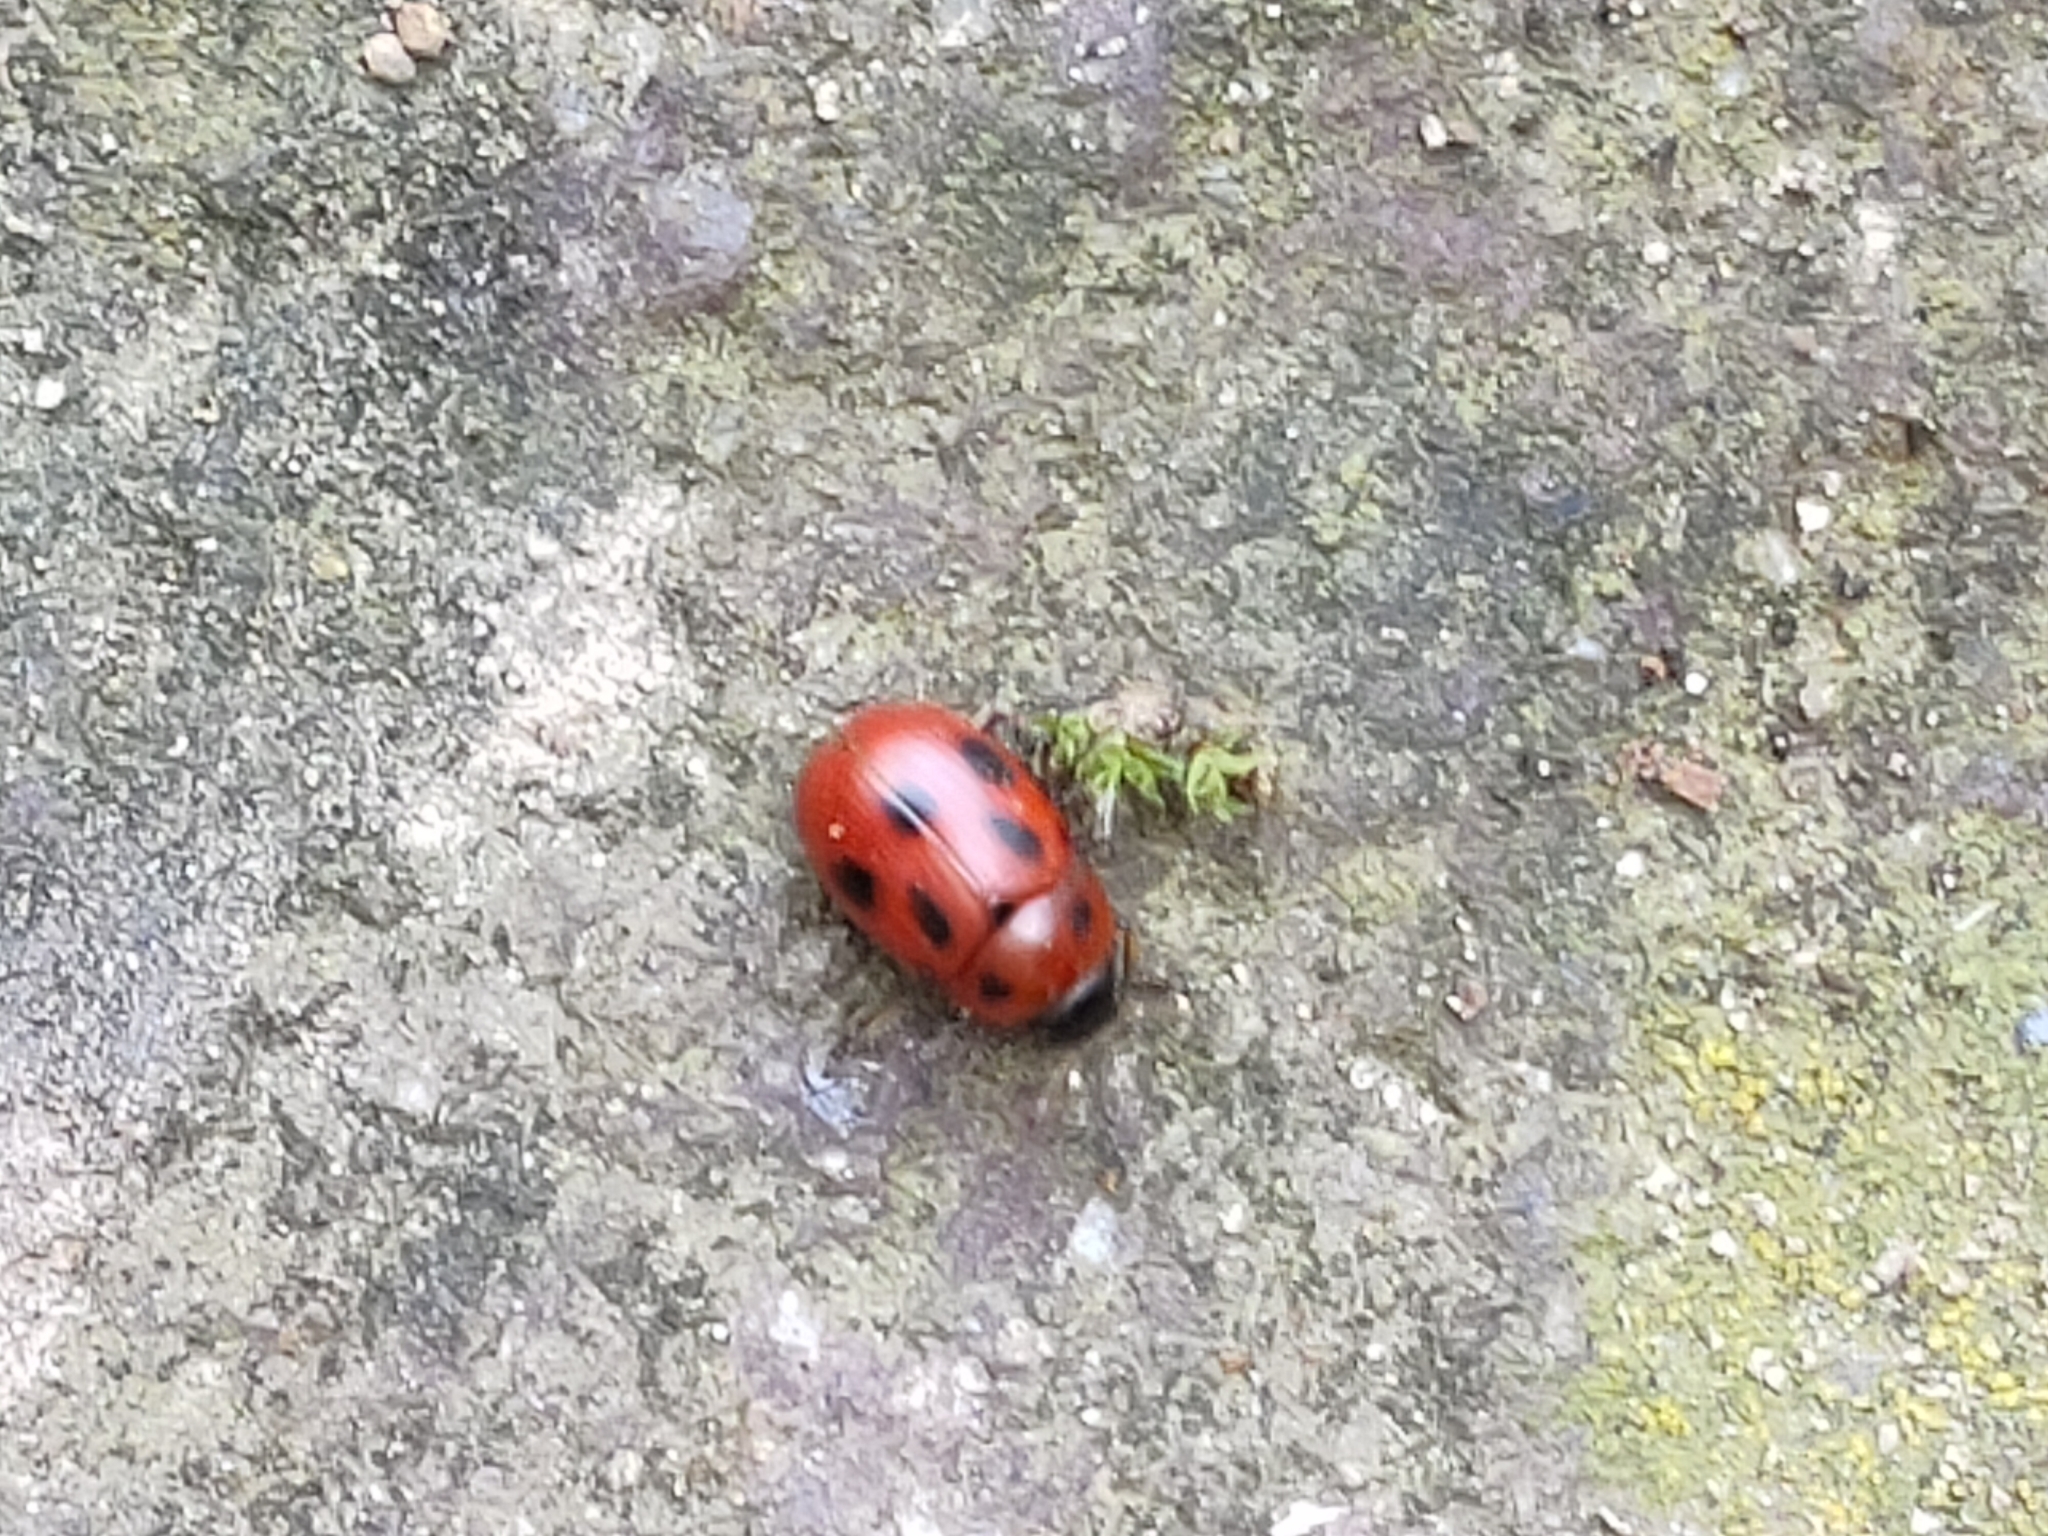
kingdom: Animalia
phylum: Arthropoda
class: Insecta
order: Coleoptera
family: Chrysomelidae
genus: Gonioctena
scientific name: Gonioctena fornicata
